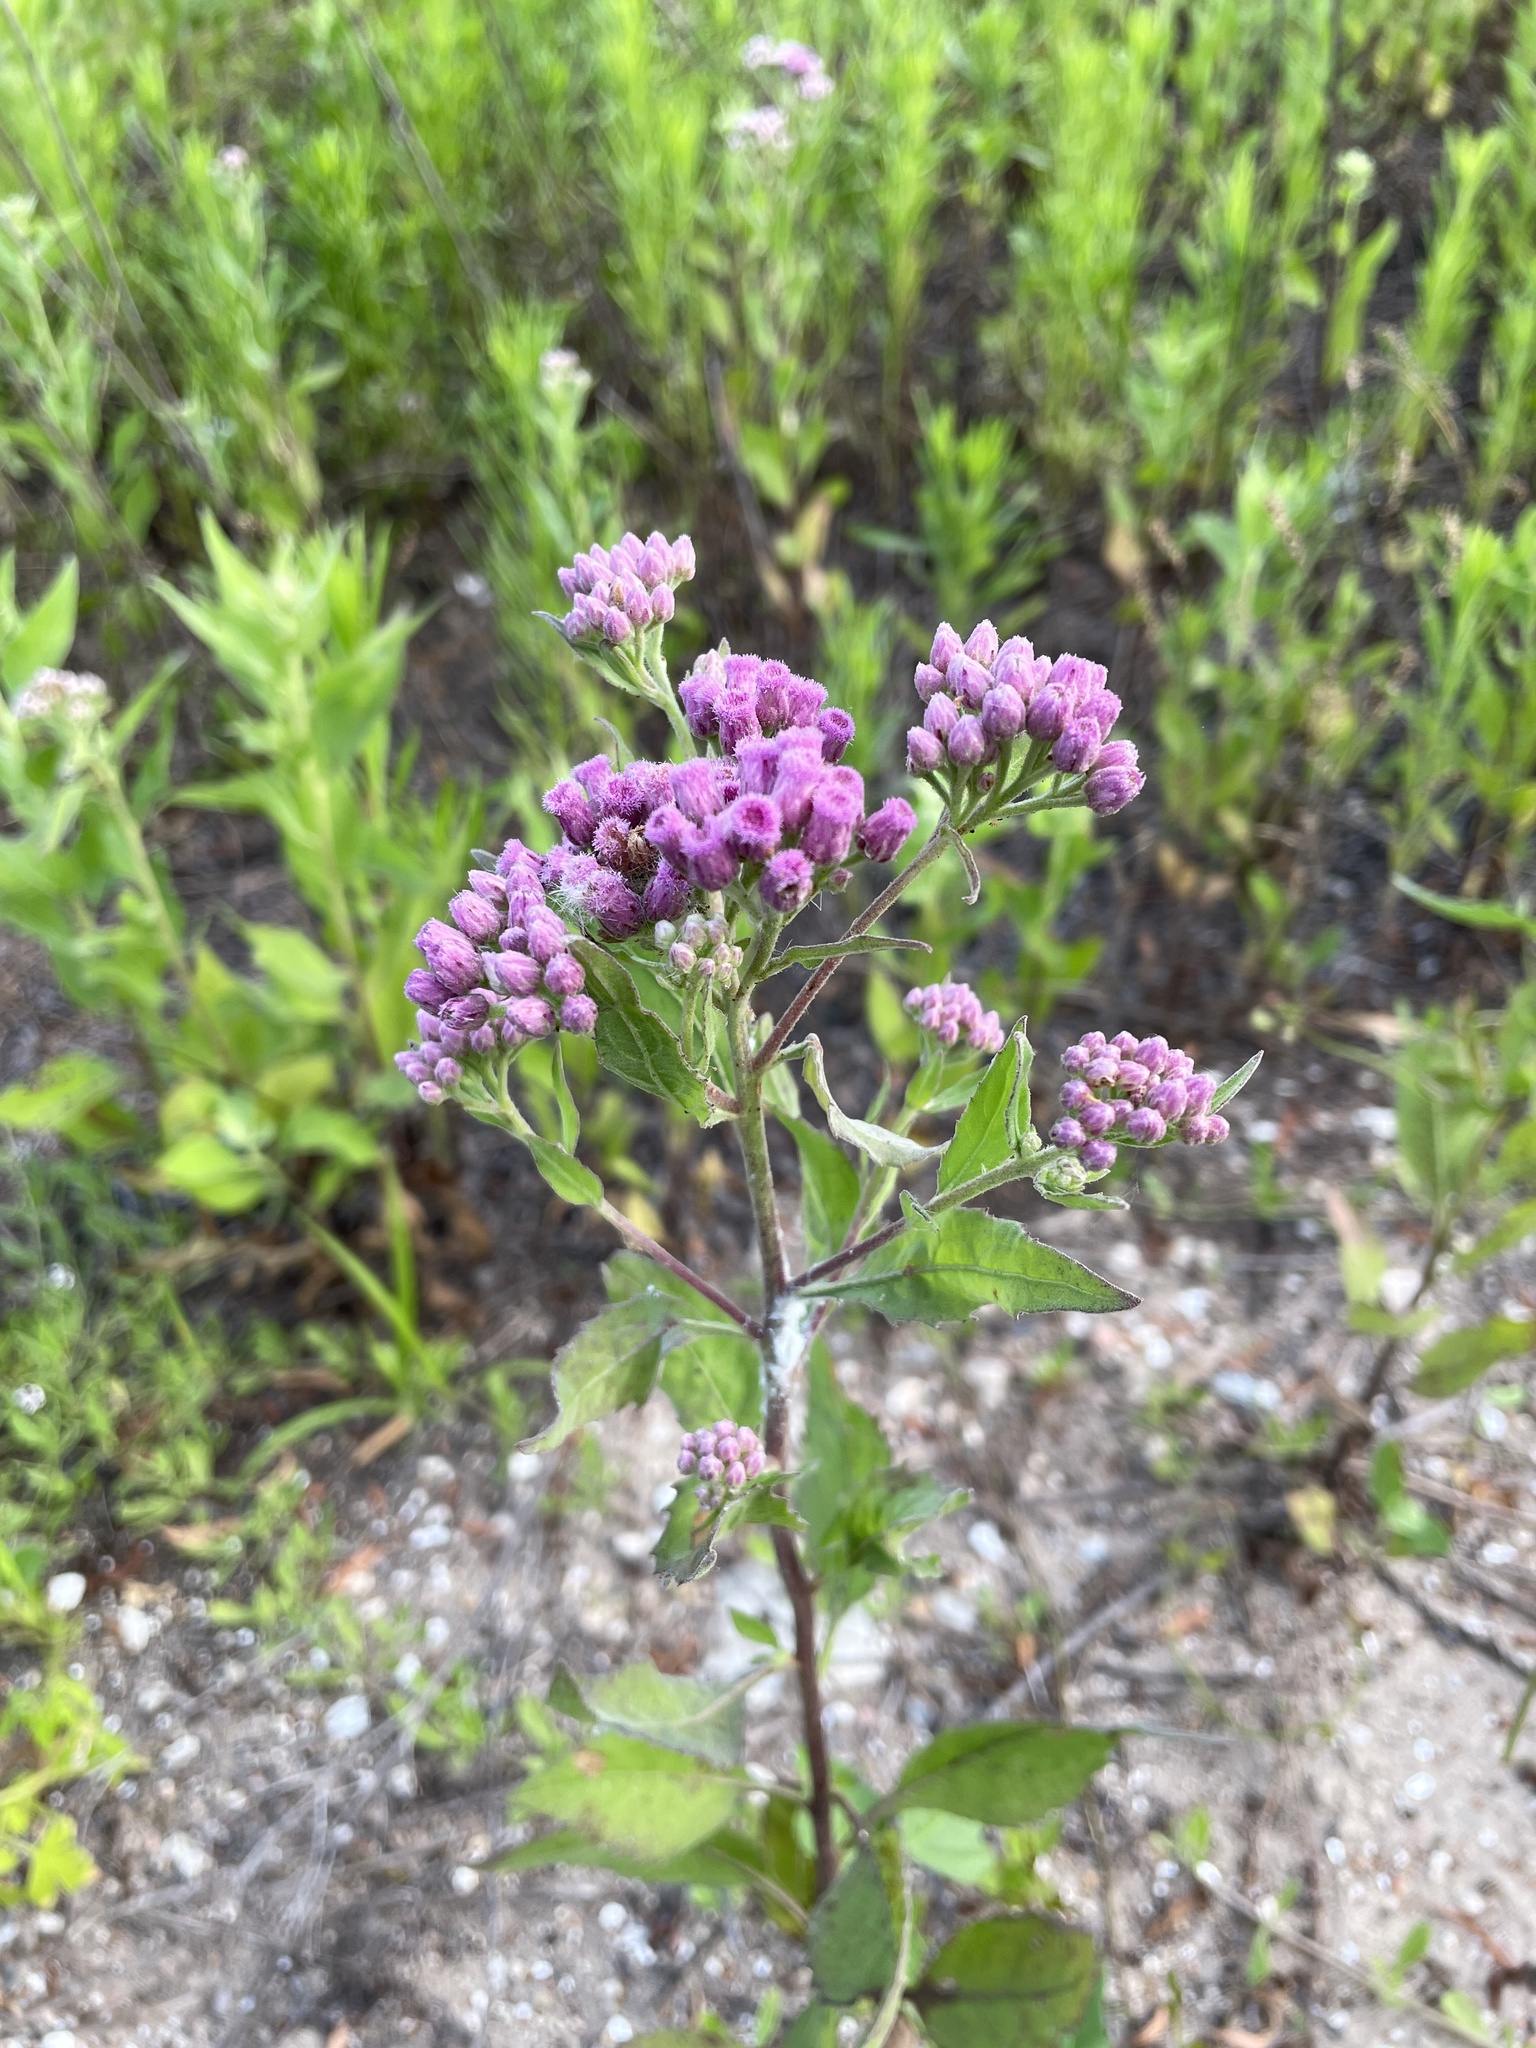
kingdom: Plantae
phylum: Tracheophyta
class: Magnoliopsida
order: Asterales
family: Asteraceae
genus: Pluchea
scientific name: Pluchea odorata
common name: Saltmarsh fleabane
